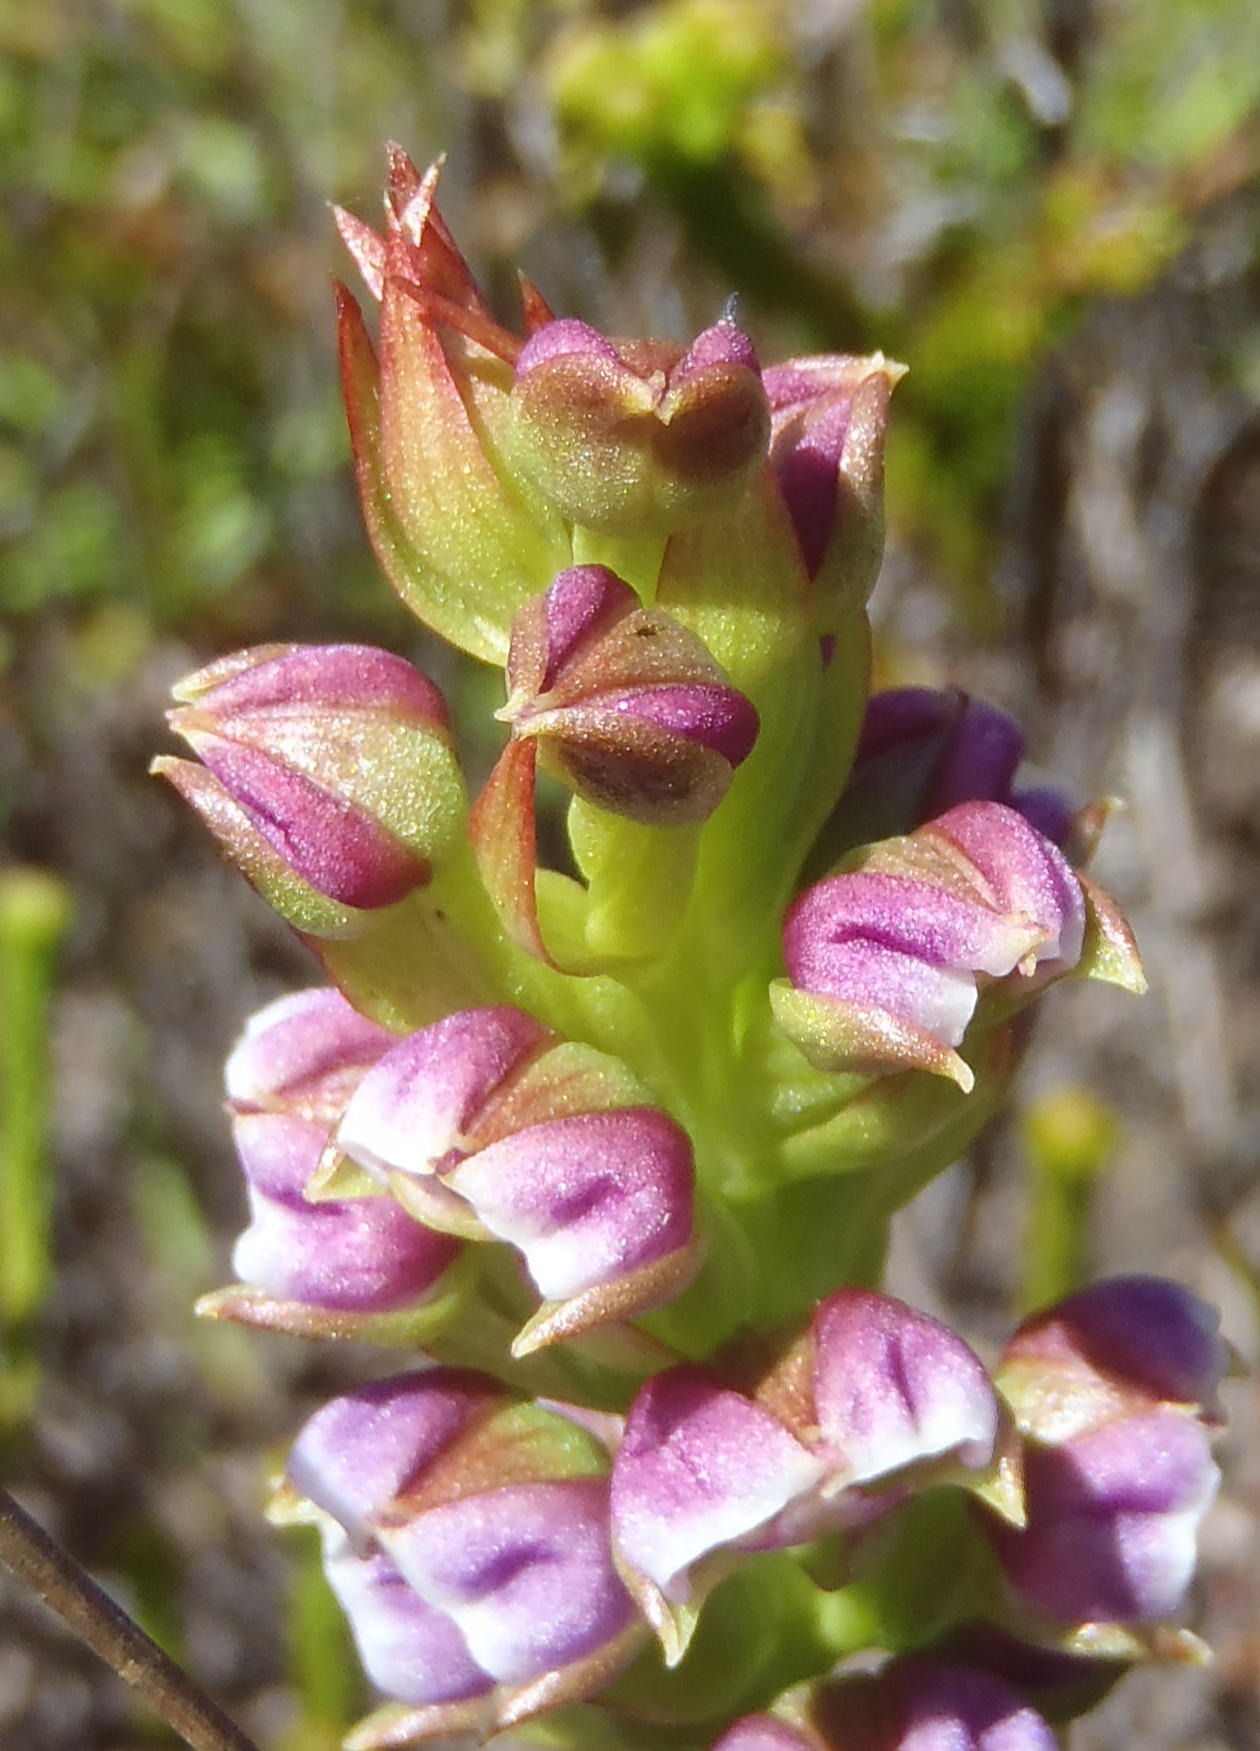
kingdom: Plantae
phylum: Tracheophyta
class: Liliopsida
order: Asparagales
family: Orchidaceae
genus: Evotella
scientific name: Evotella carnosa
